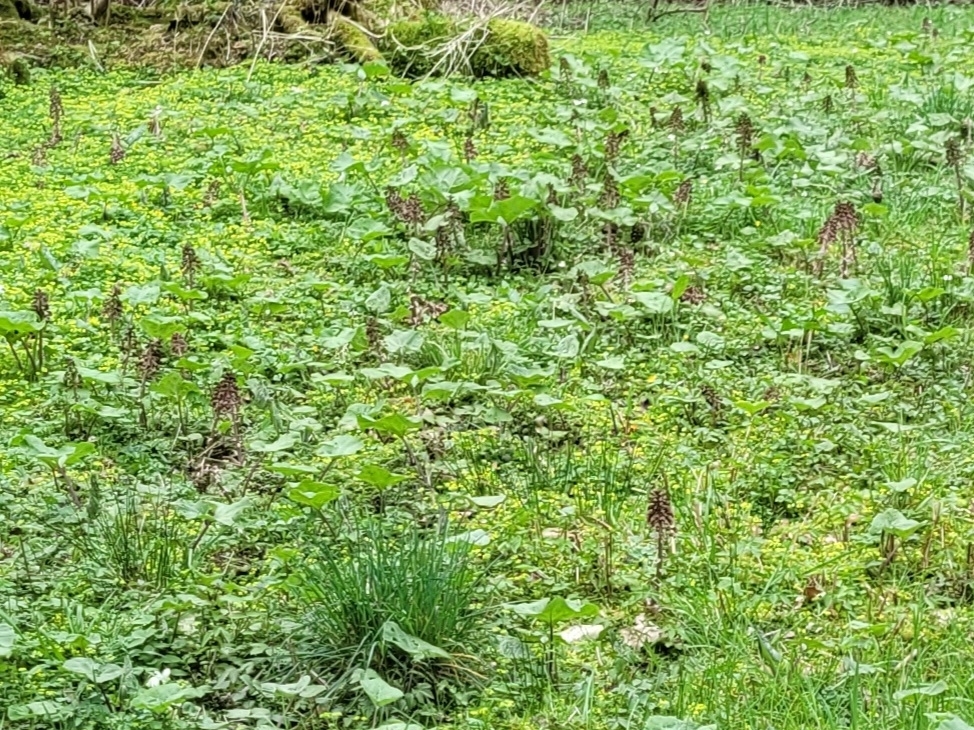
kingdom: Plantae
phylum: Tracheophyta
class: Magnoliopsida
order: Asterales
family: Asteraceae
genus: Petasites
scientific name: Petasites hybridus
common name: Butterbur
